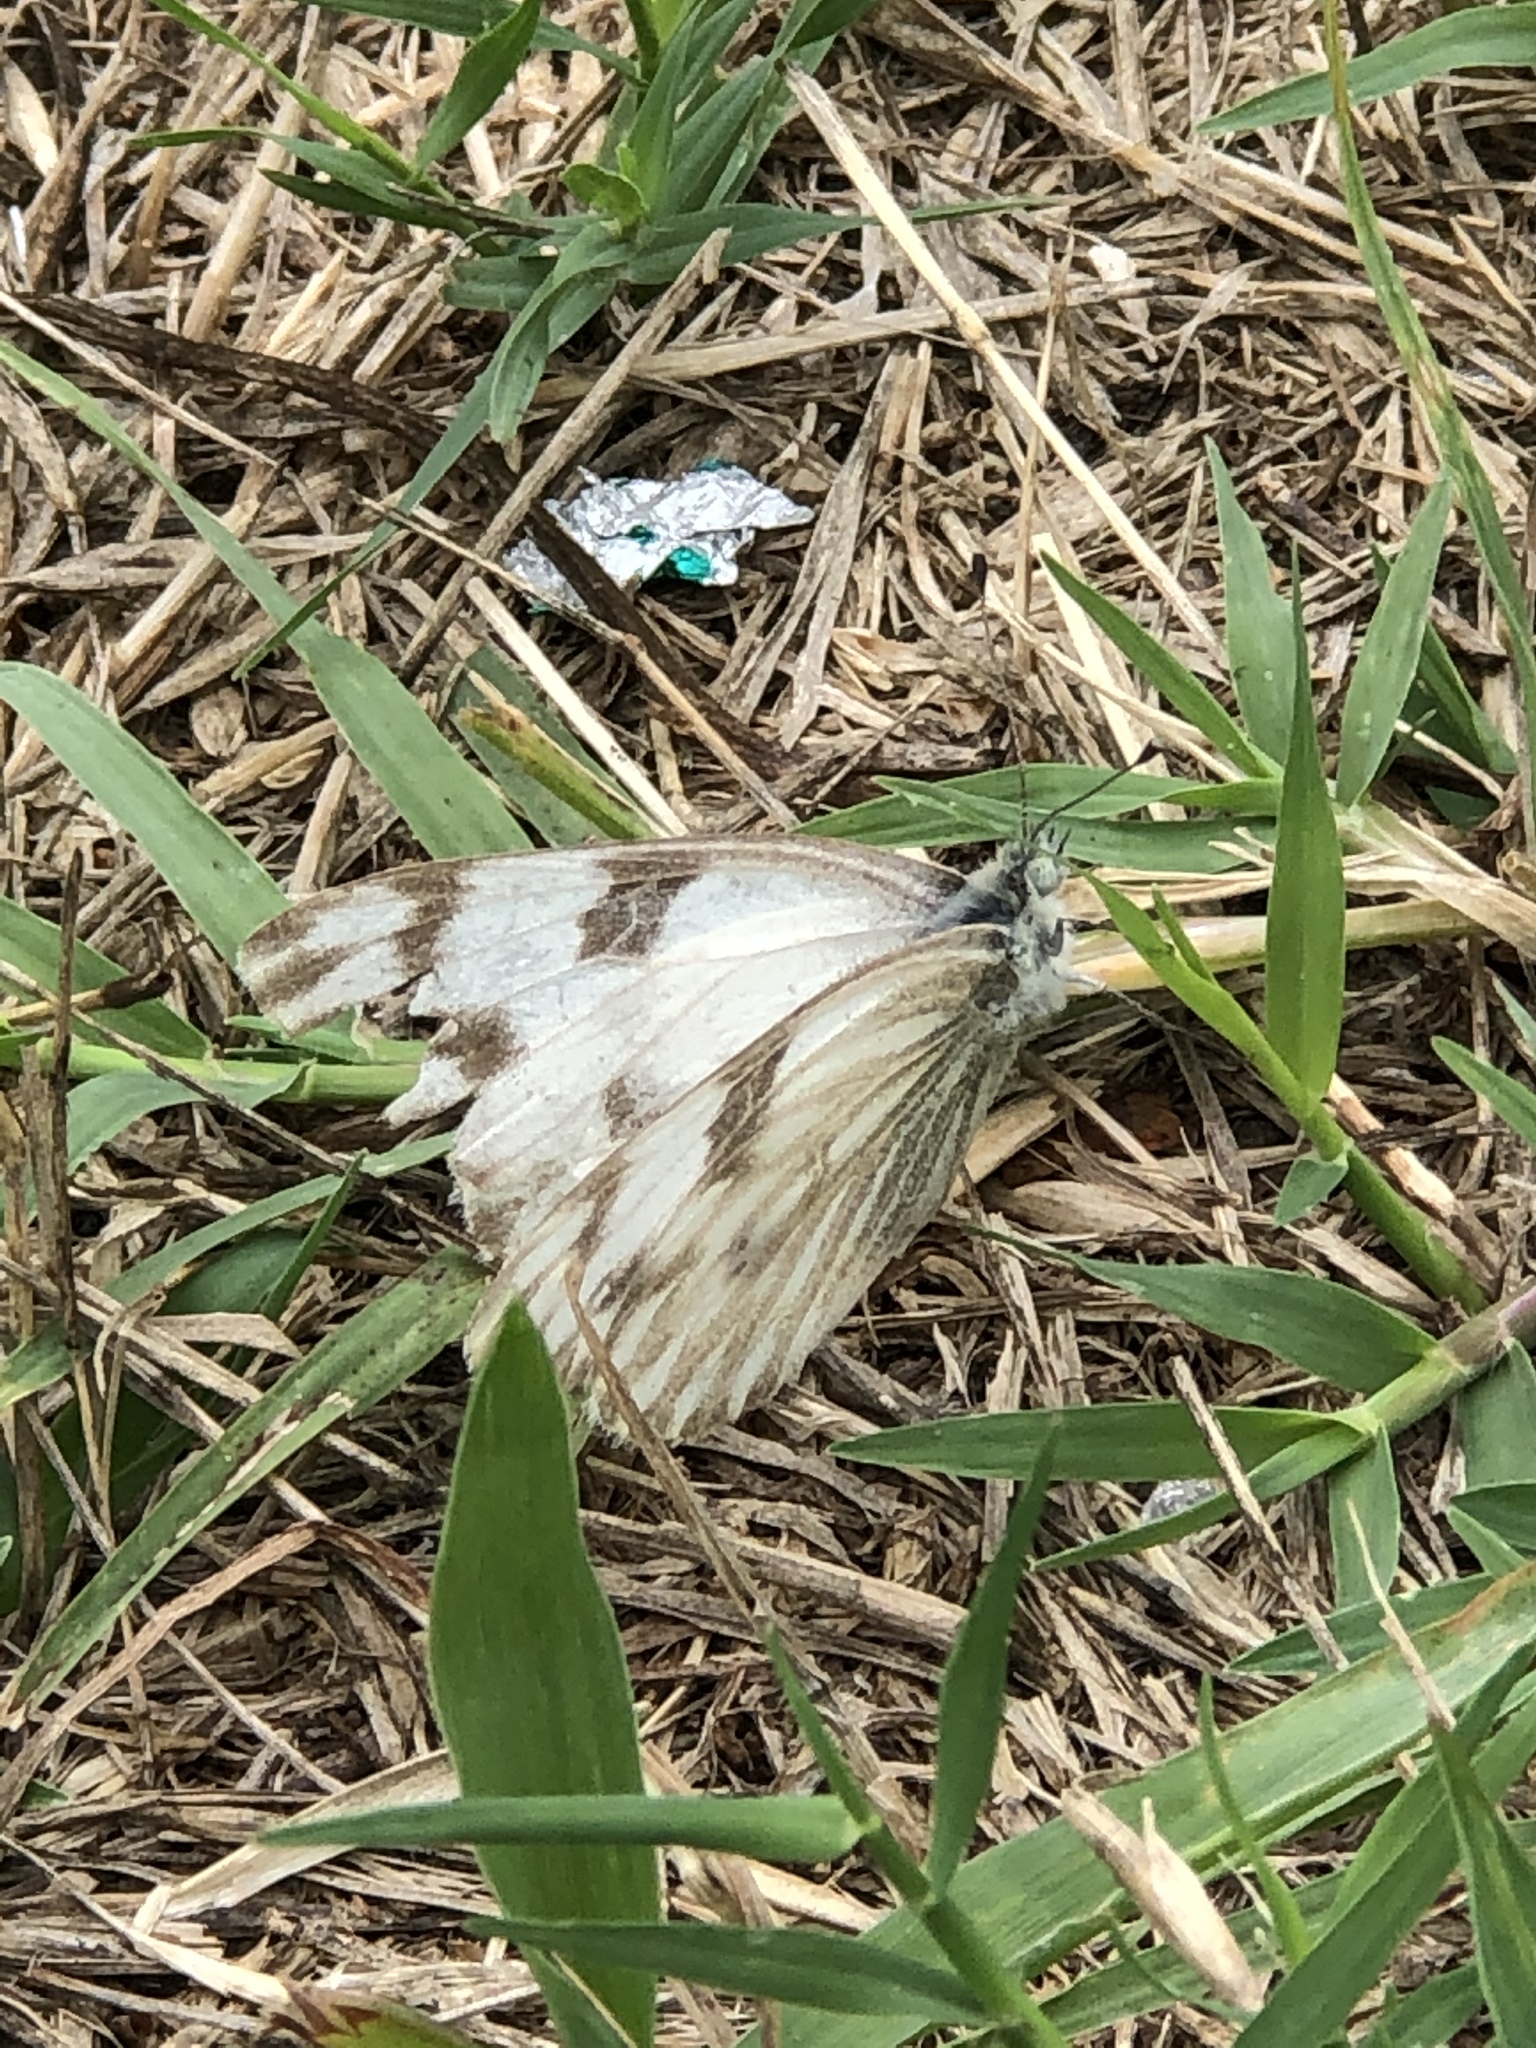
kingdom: Animalia
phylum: Arthropoda
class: Insecta
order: Lepidoptera
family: Pieridae
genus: Pontia
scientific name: Pontia protodice
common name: Checkered white
